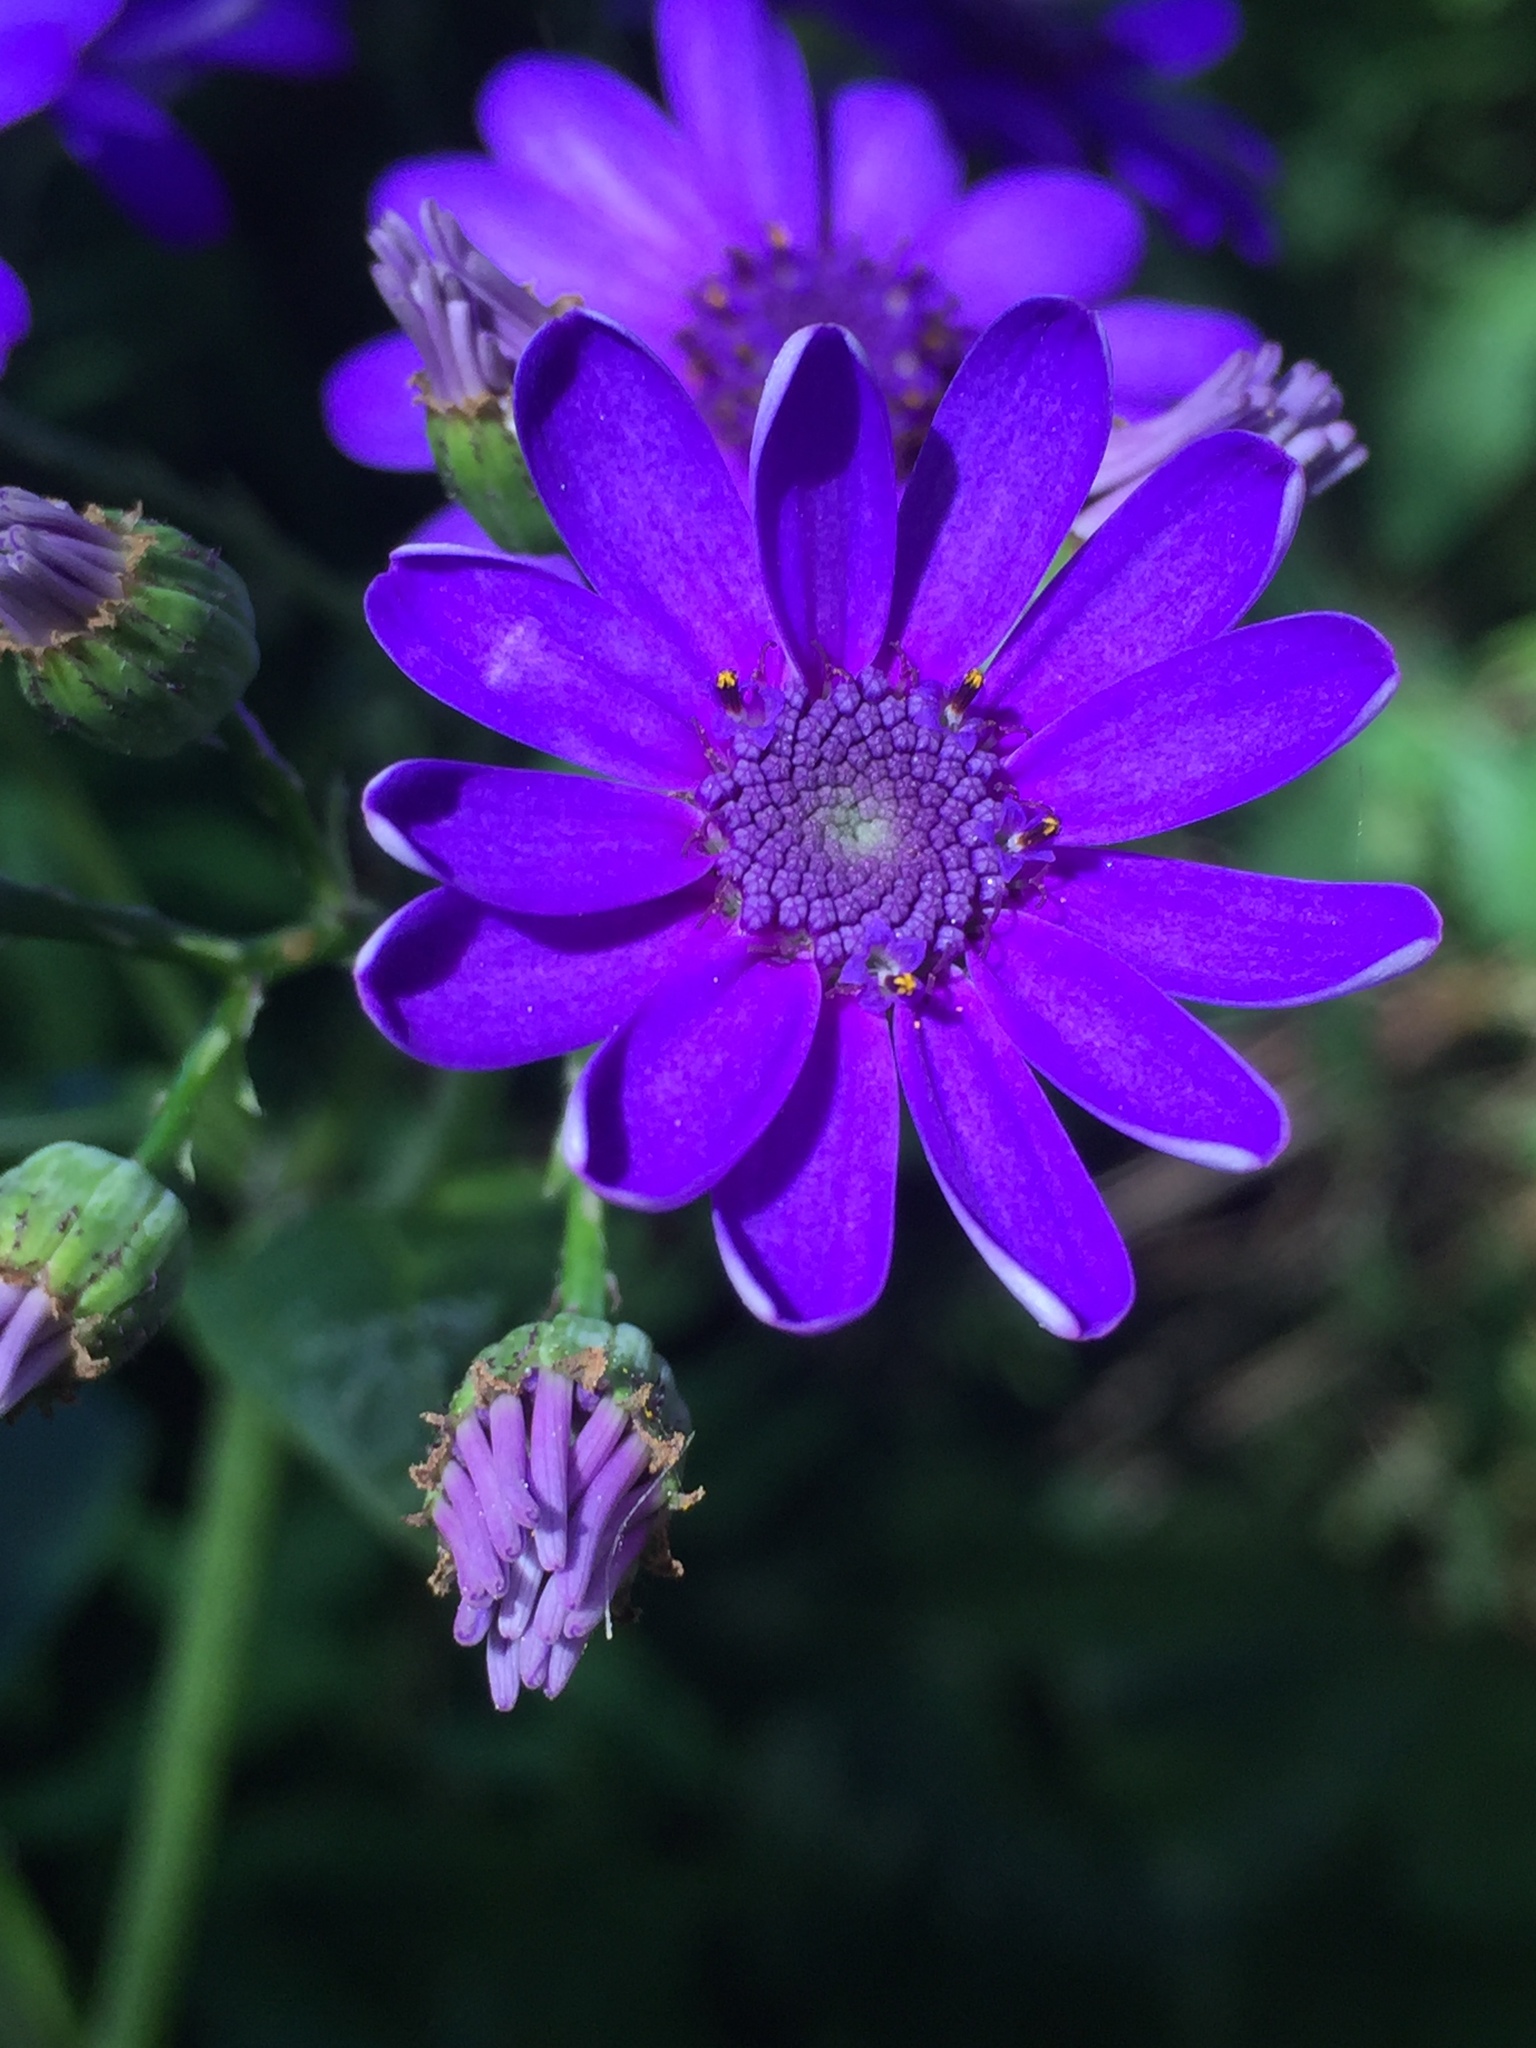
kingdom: Plantae
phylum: Tracheophyta
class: Magnoliopsida
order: Asterales
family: Asteraceae
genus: Pericallis
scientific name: Pericallis hybrida
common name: Cineraria
